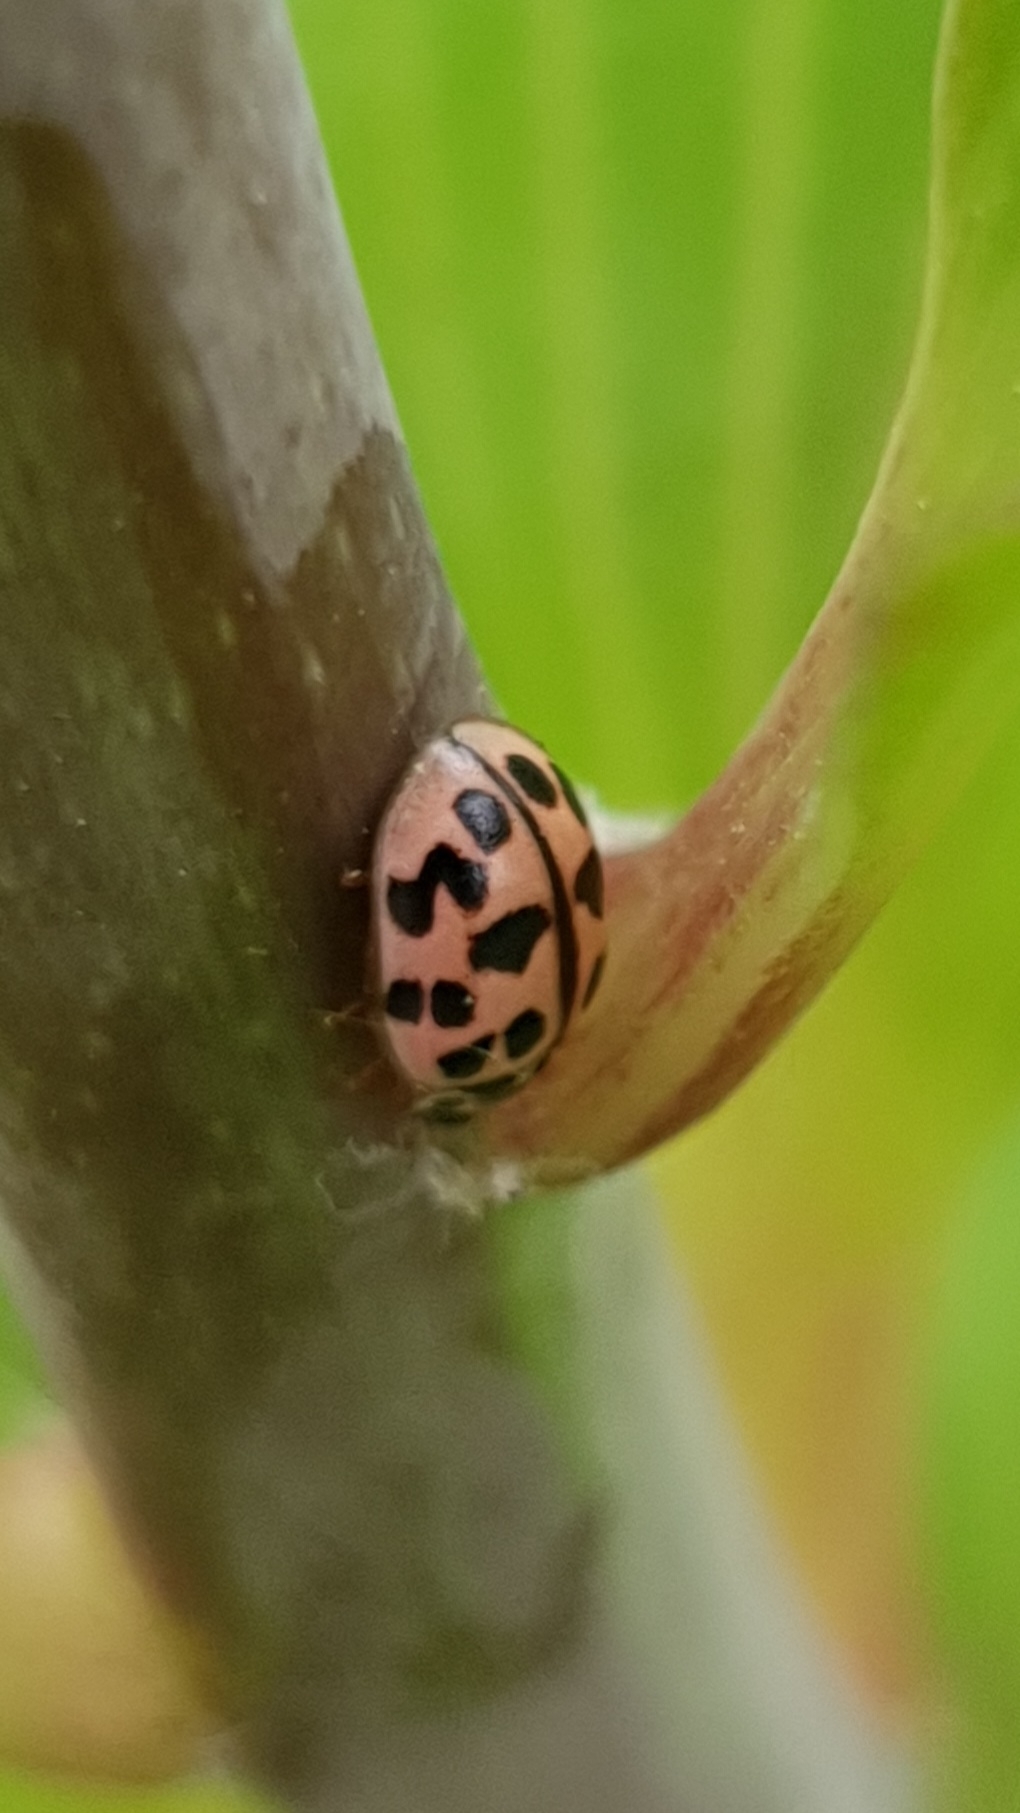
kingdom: Animalia
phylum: Arthropoda
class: Insecta
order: Coleoptera
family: Coccinellidae
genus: Oenopia
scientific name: Oenopia conglobata
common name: Ladybird beetle
